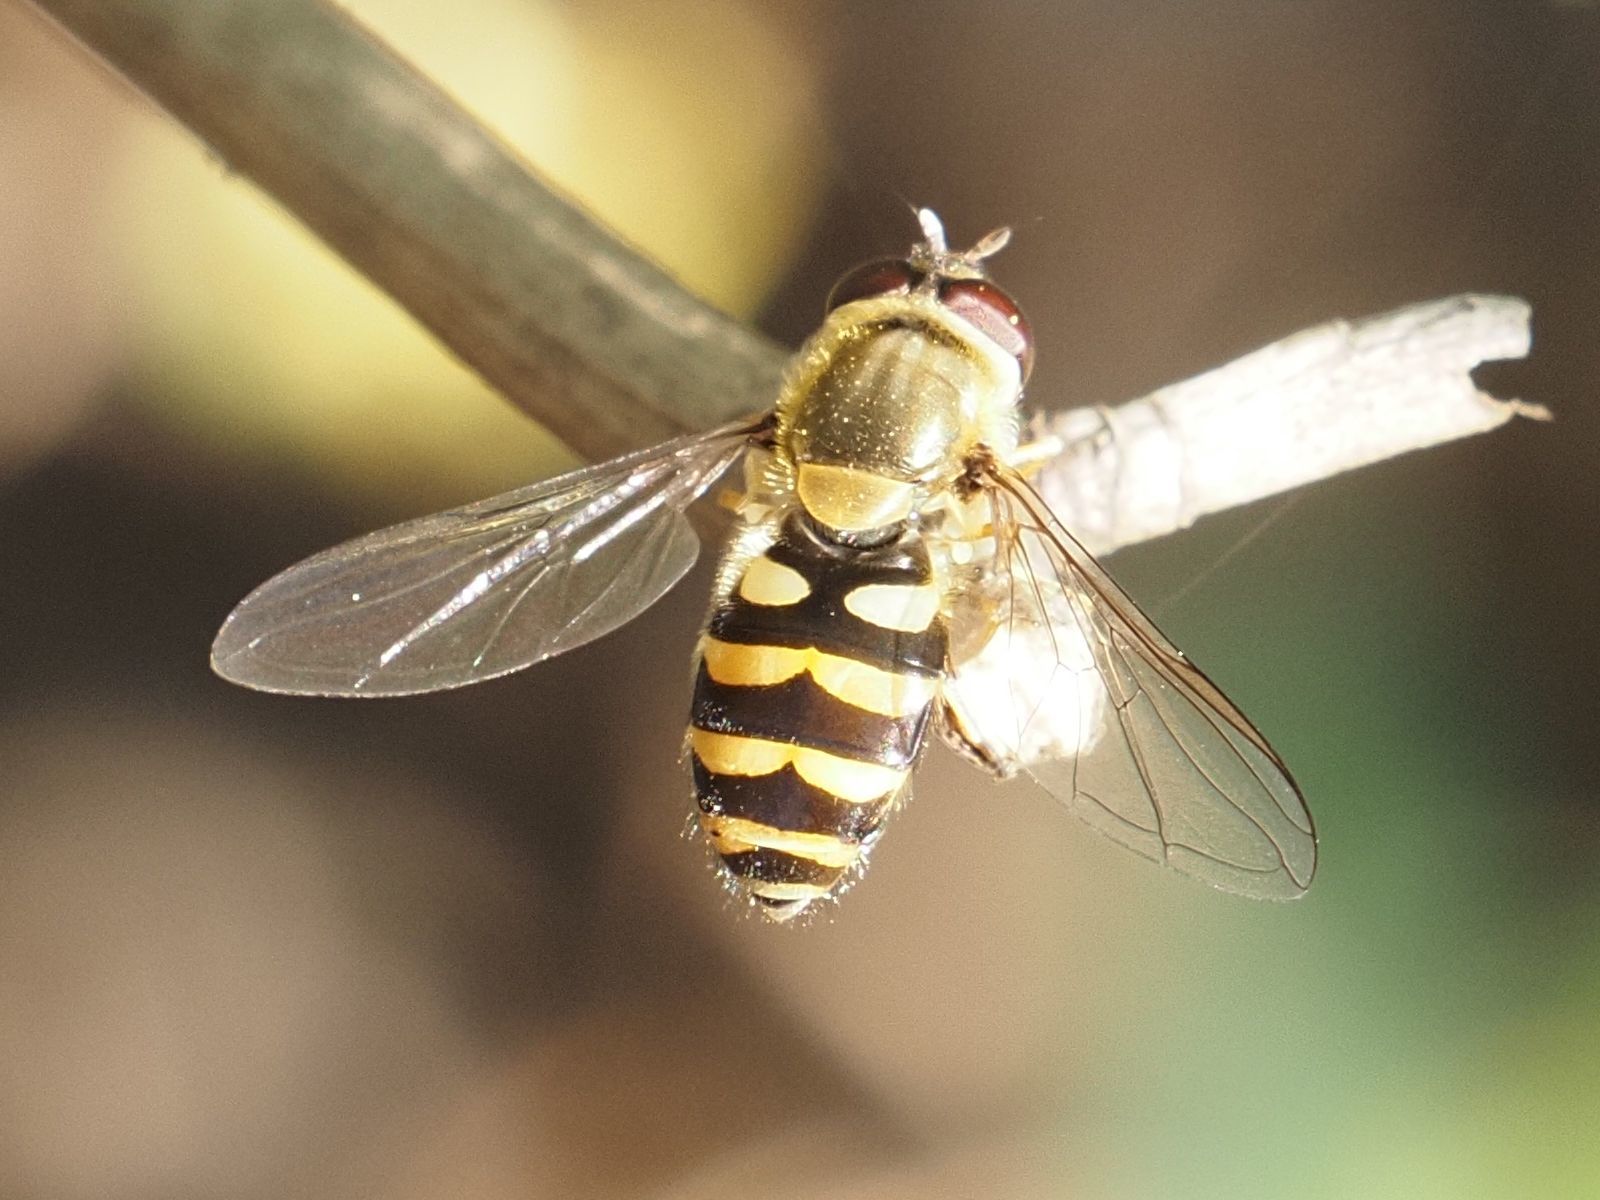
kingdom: Animalia
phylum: Arthropoda
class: Insecta
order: Diptera
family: Syrphidae
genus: Syrphus
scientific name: Syrphus ribesii
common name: Common flower fly
